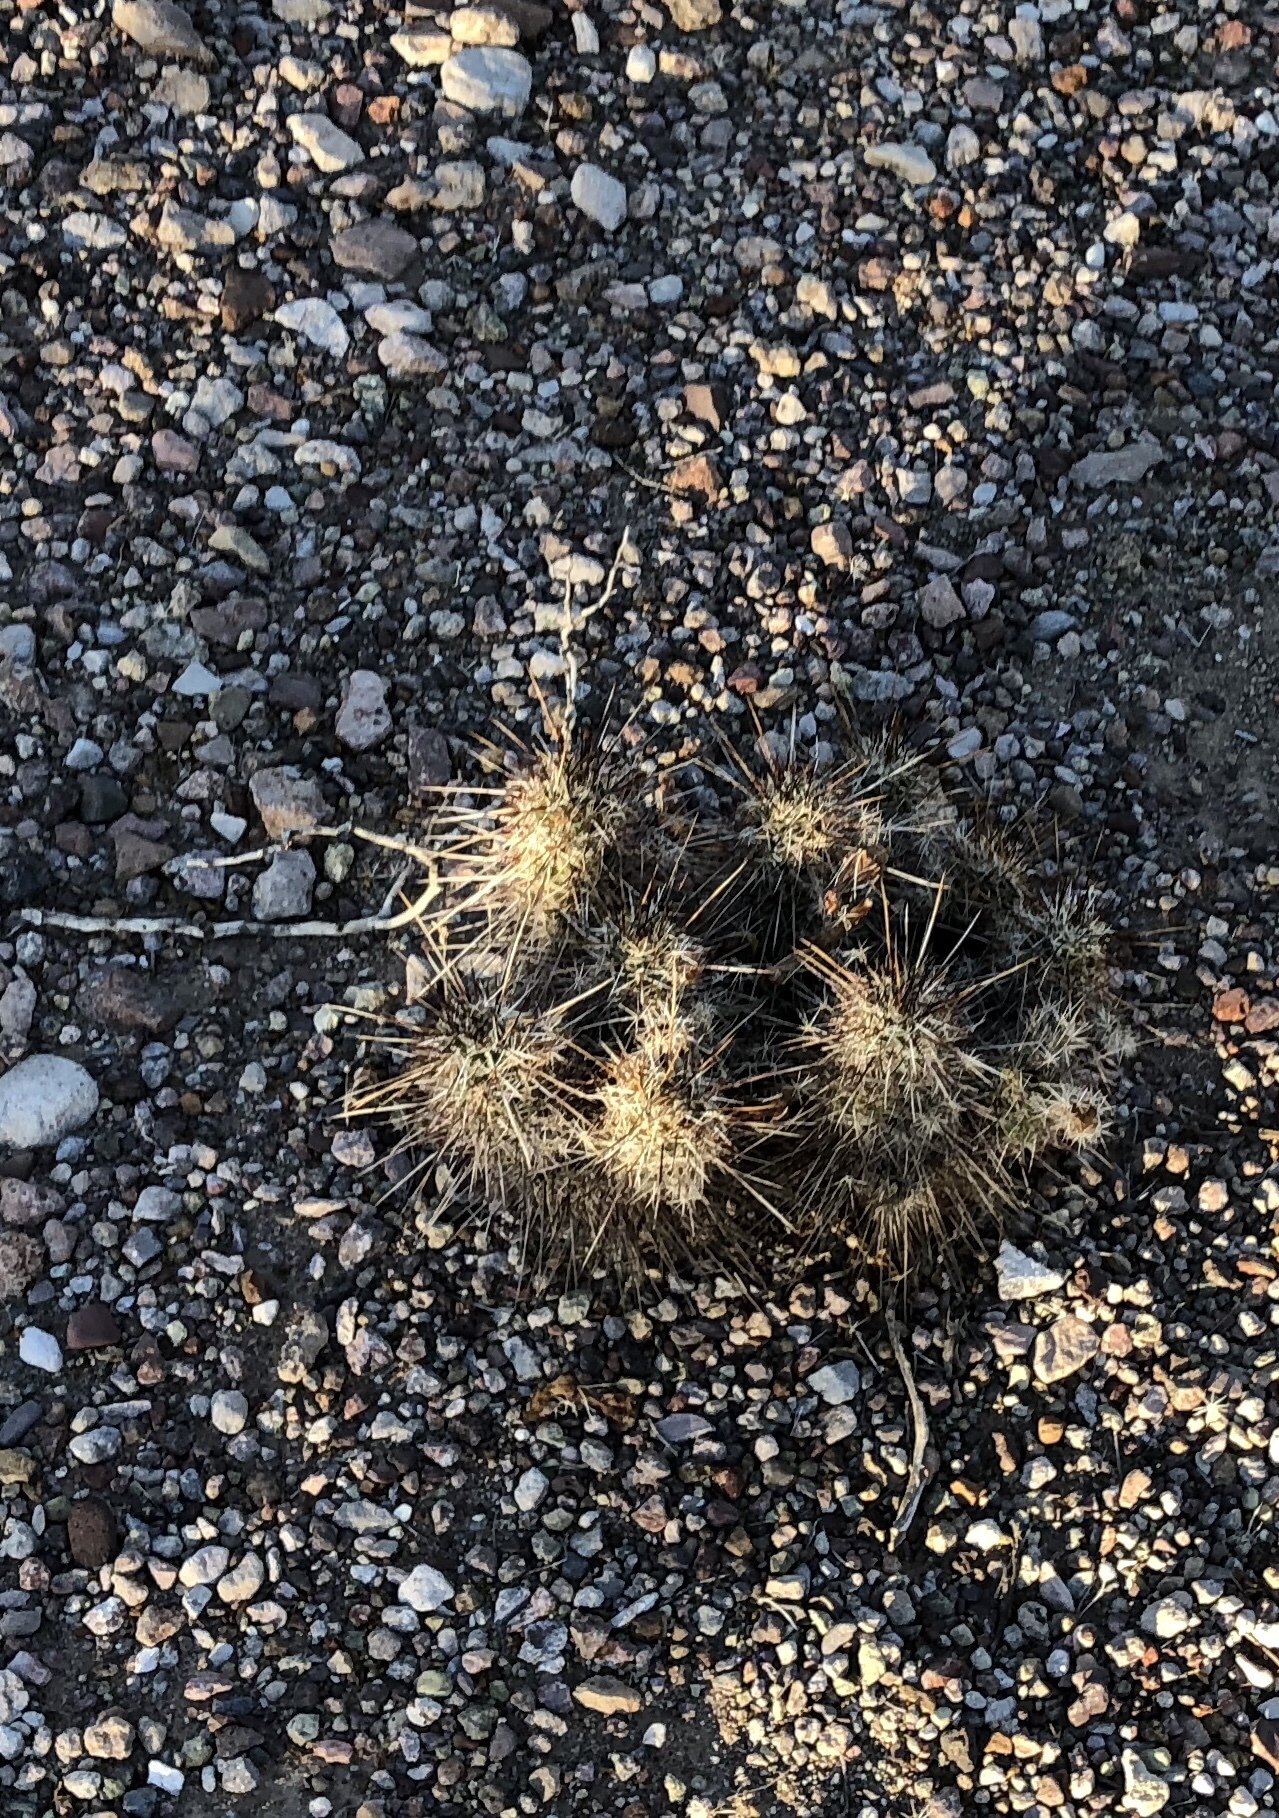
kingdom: Plantae
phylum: Tracheophyta
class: Magnoliopsida
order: Caryophyllales
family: Cactaceae
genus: Echinocereus
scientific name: Echinocereus fasciculatus
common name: Bundle hedgehog
